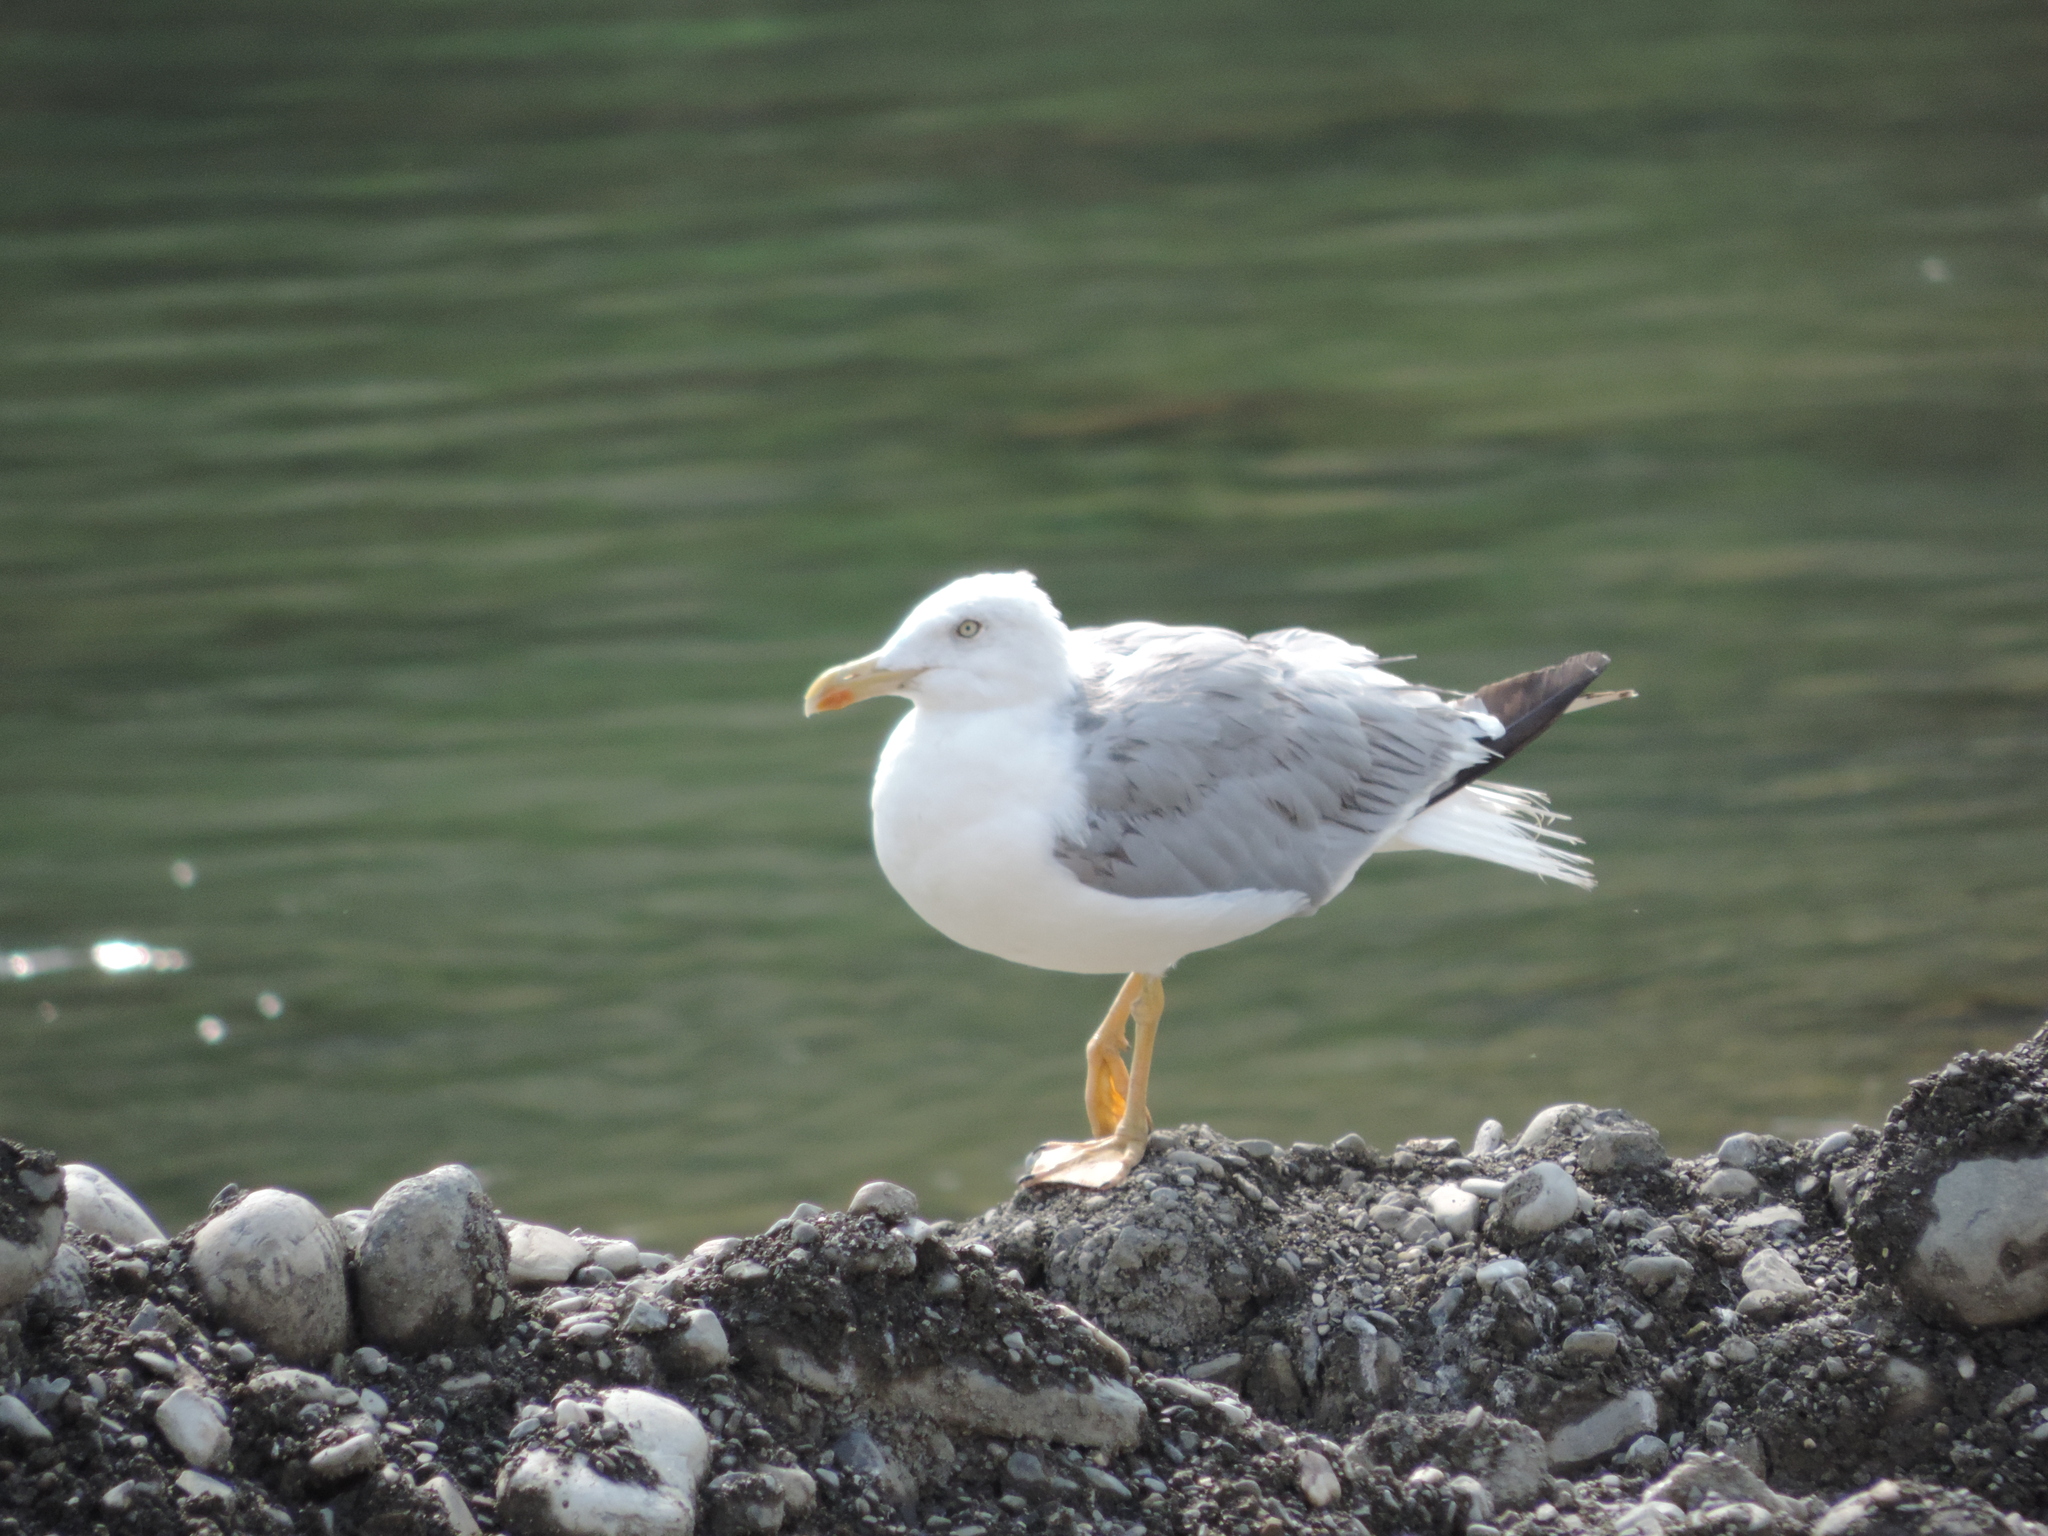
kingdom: Animalia
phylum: Chordata
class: Aves
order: Charadriiformes
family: Laridae
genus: Larus
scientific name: Larus michahellis
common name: Yellow-legged gull
